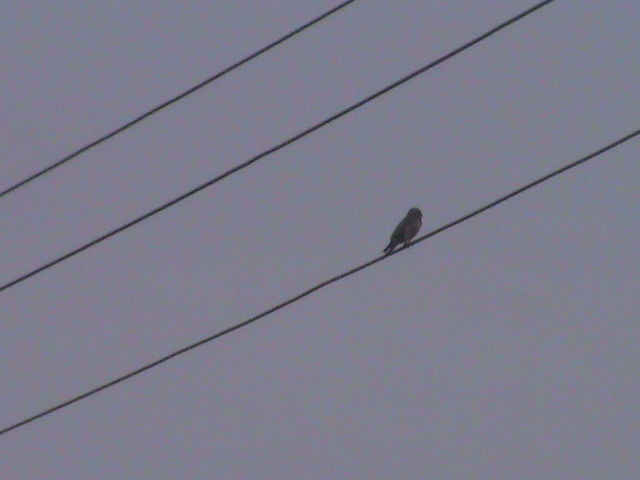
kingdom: Animalia
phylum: Chordata
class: Aves
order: Passeriformes
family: Artamidae
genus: Artamus
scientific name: Artamus fuscus
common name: Ashy woodswallow
